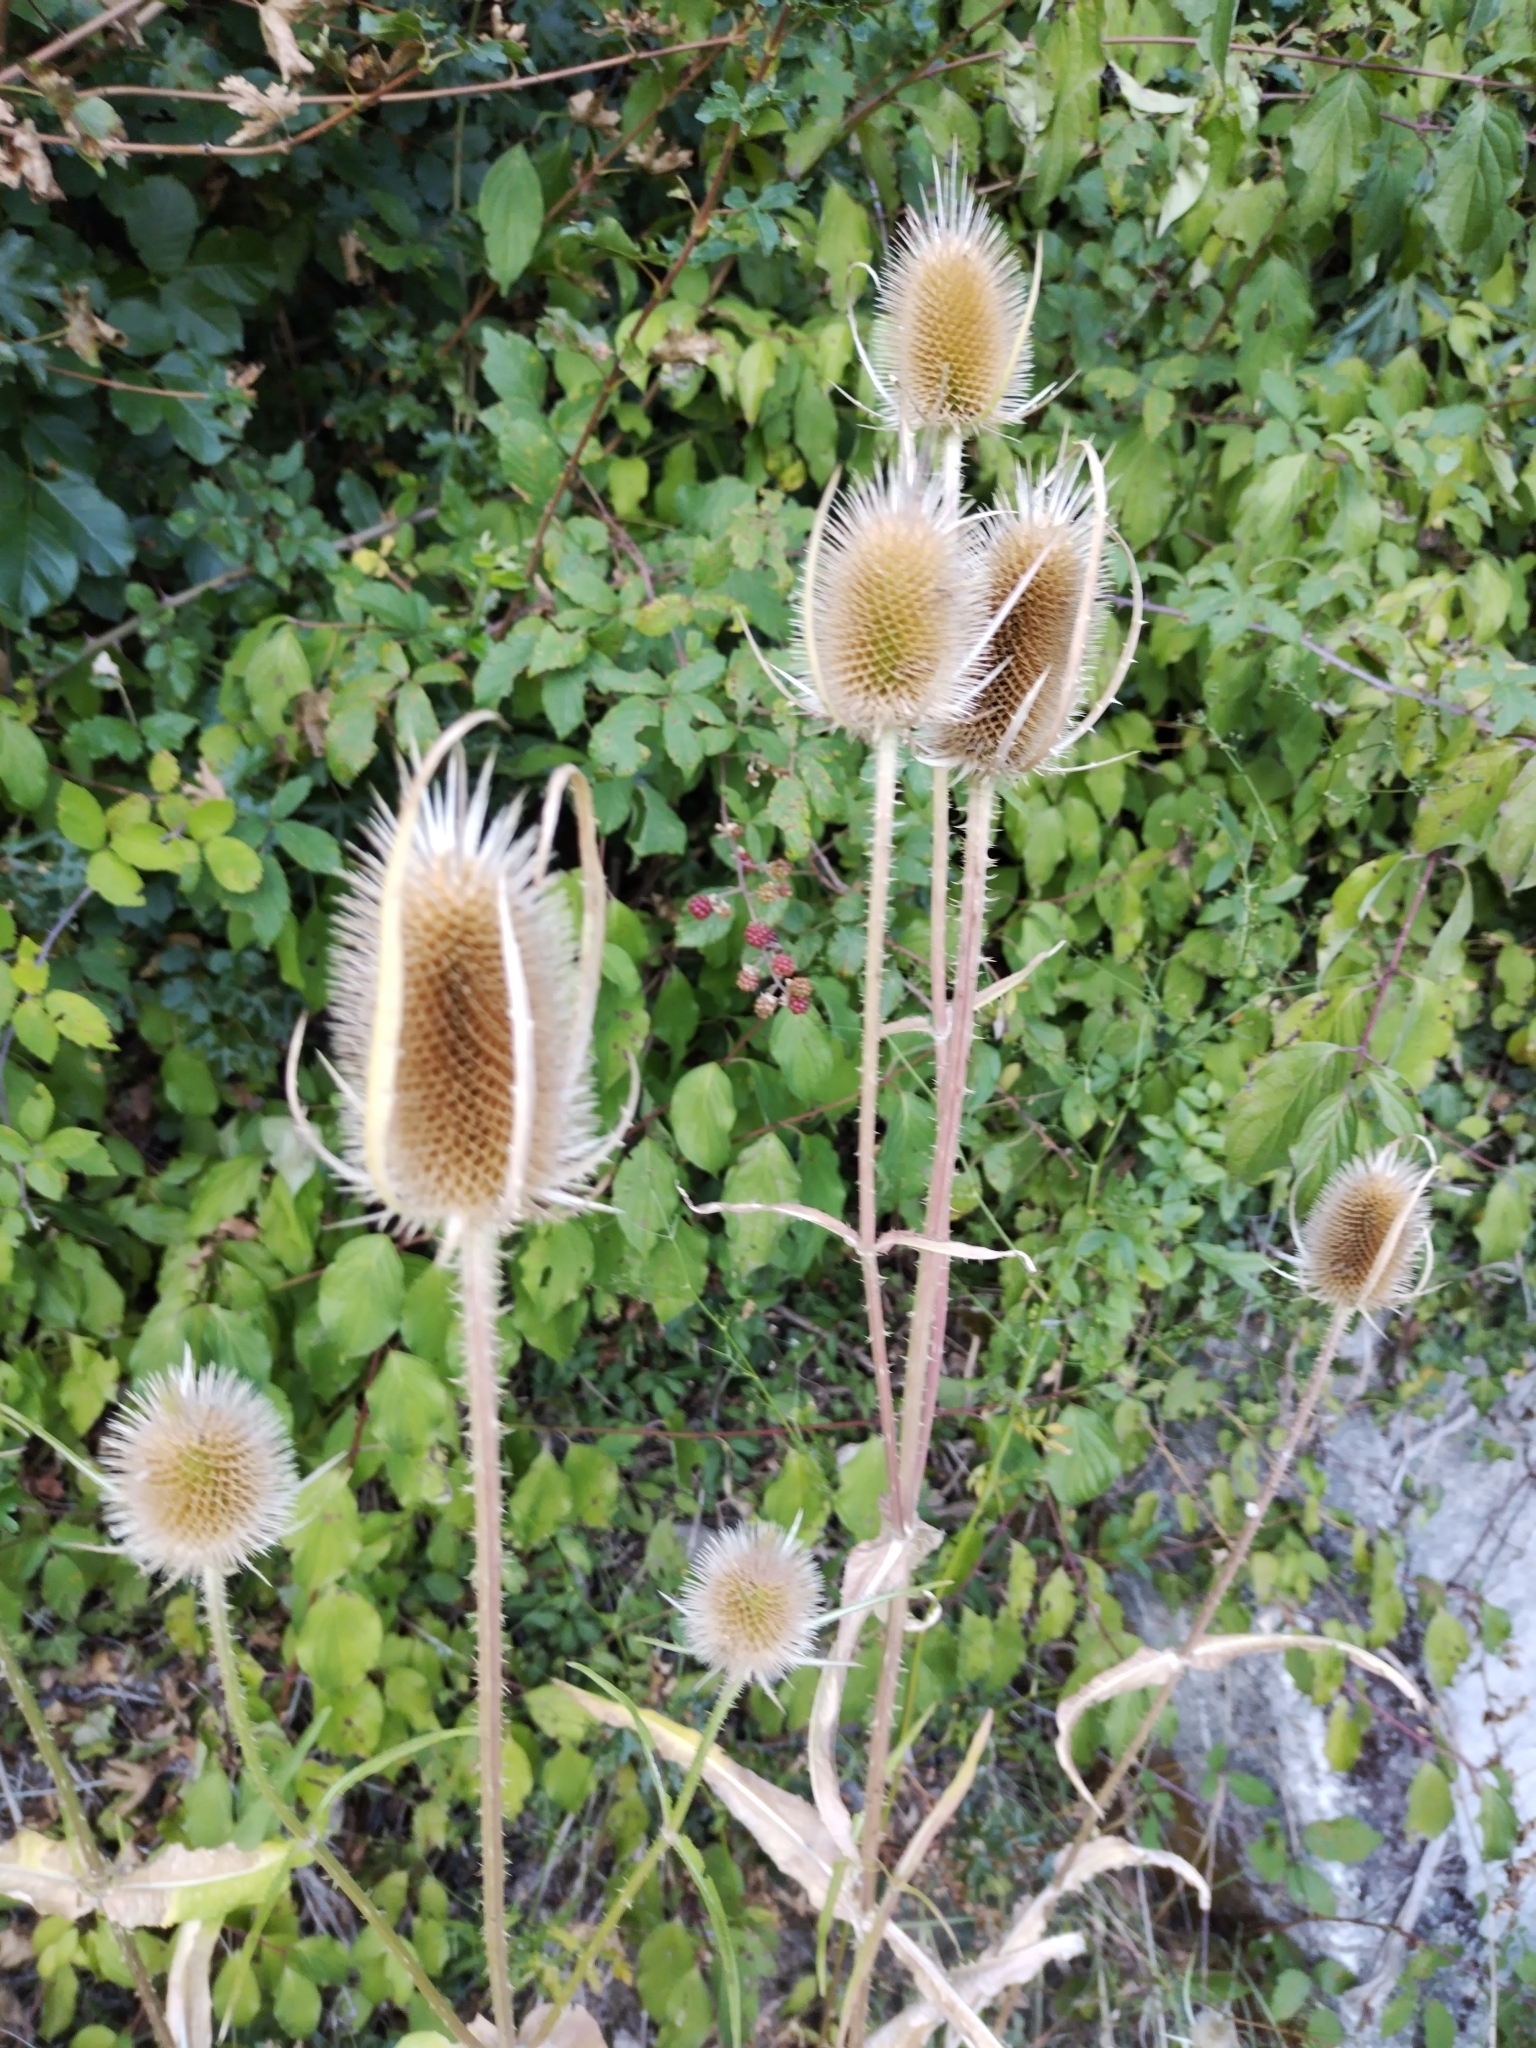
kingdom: Plantae
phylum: Tracheophyta
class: Magnoliopsida
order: Dipsacales
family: Caprifoliaceae
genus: Dipsacus
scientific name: Dipsacus fullonum
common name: Teasel
